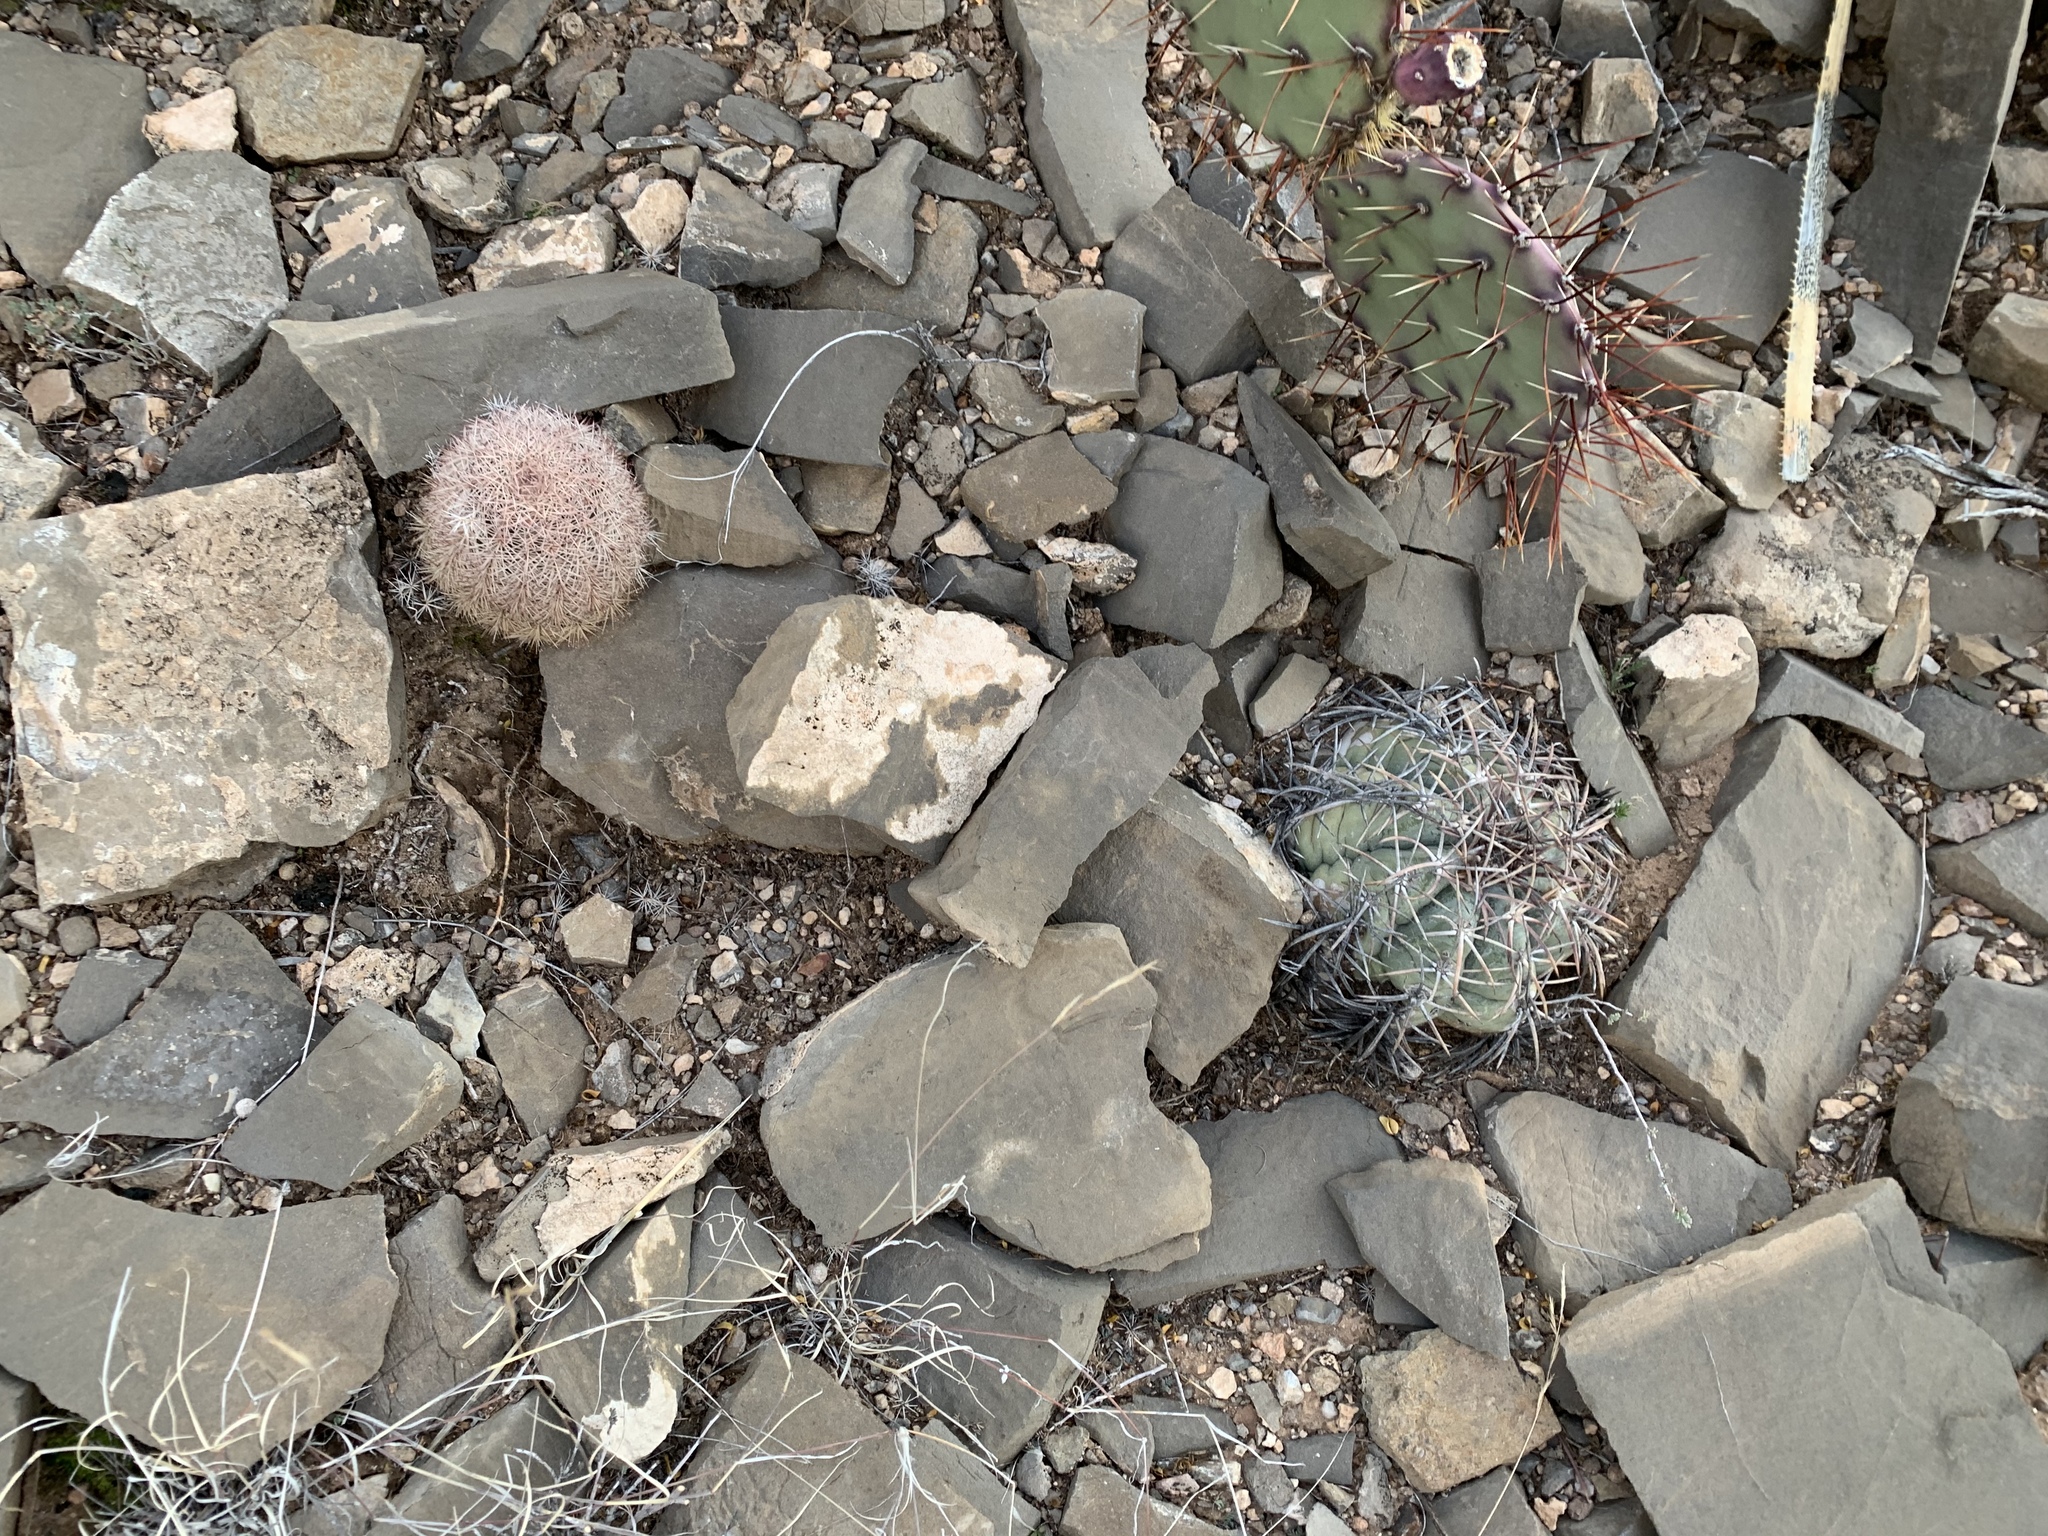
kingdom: Plantae
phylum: Tracheophyta
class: Magnoliopsida
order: Caryophyllales
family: Cactaceae
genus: Echinocactus
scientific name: Echinocactus horizonthalonius
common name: Devilshead
